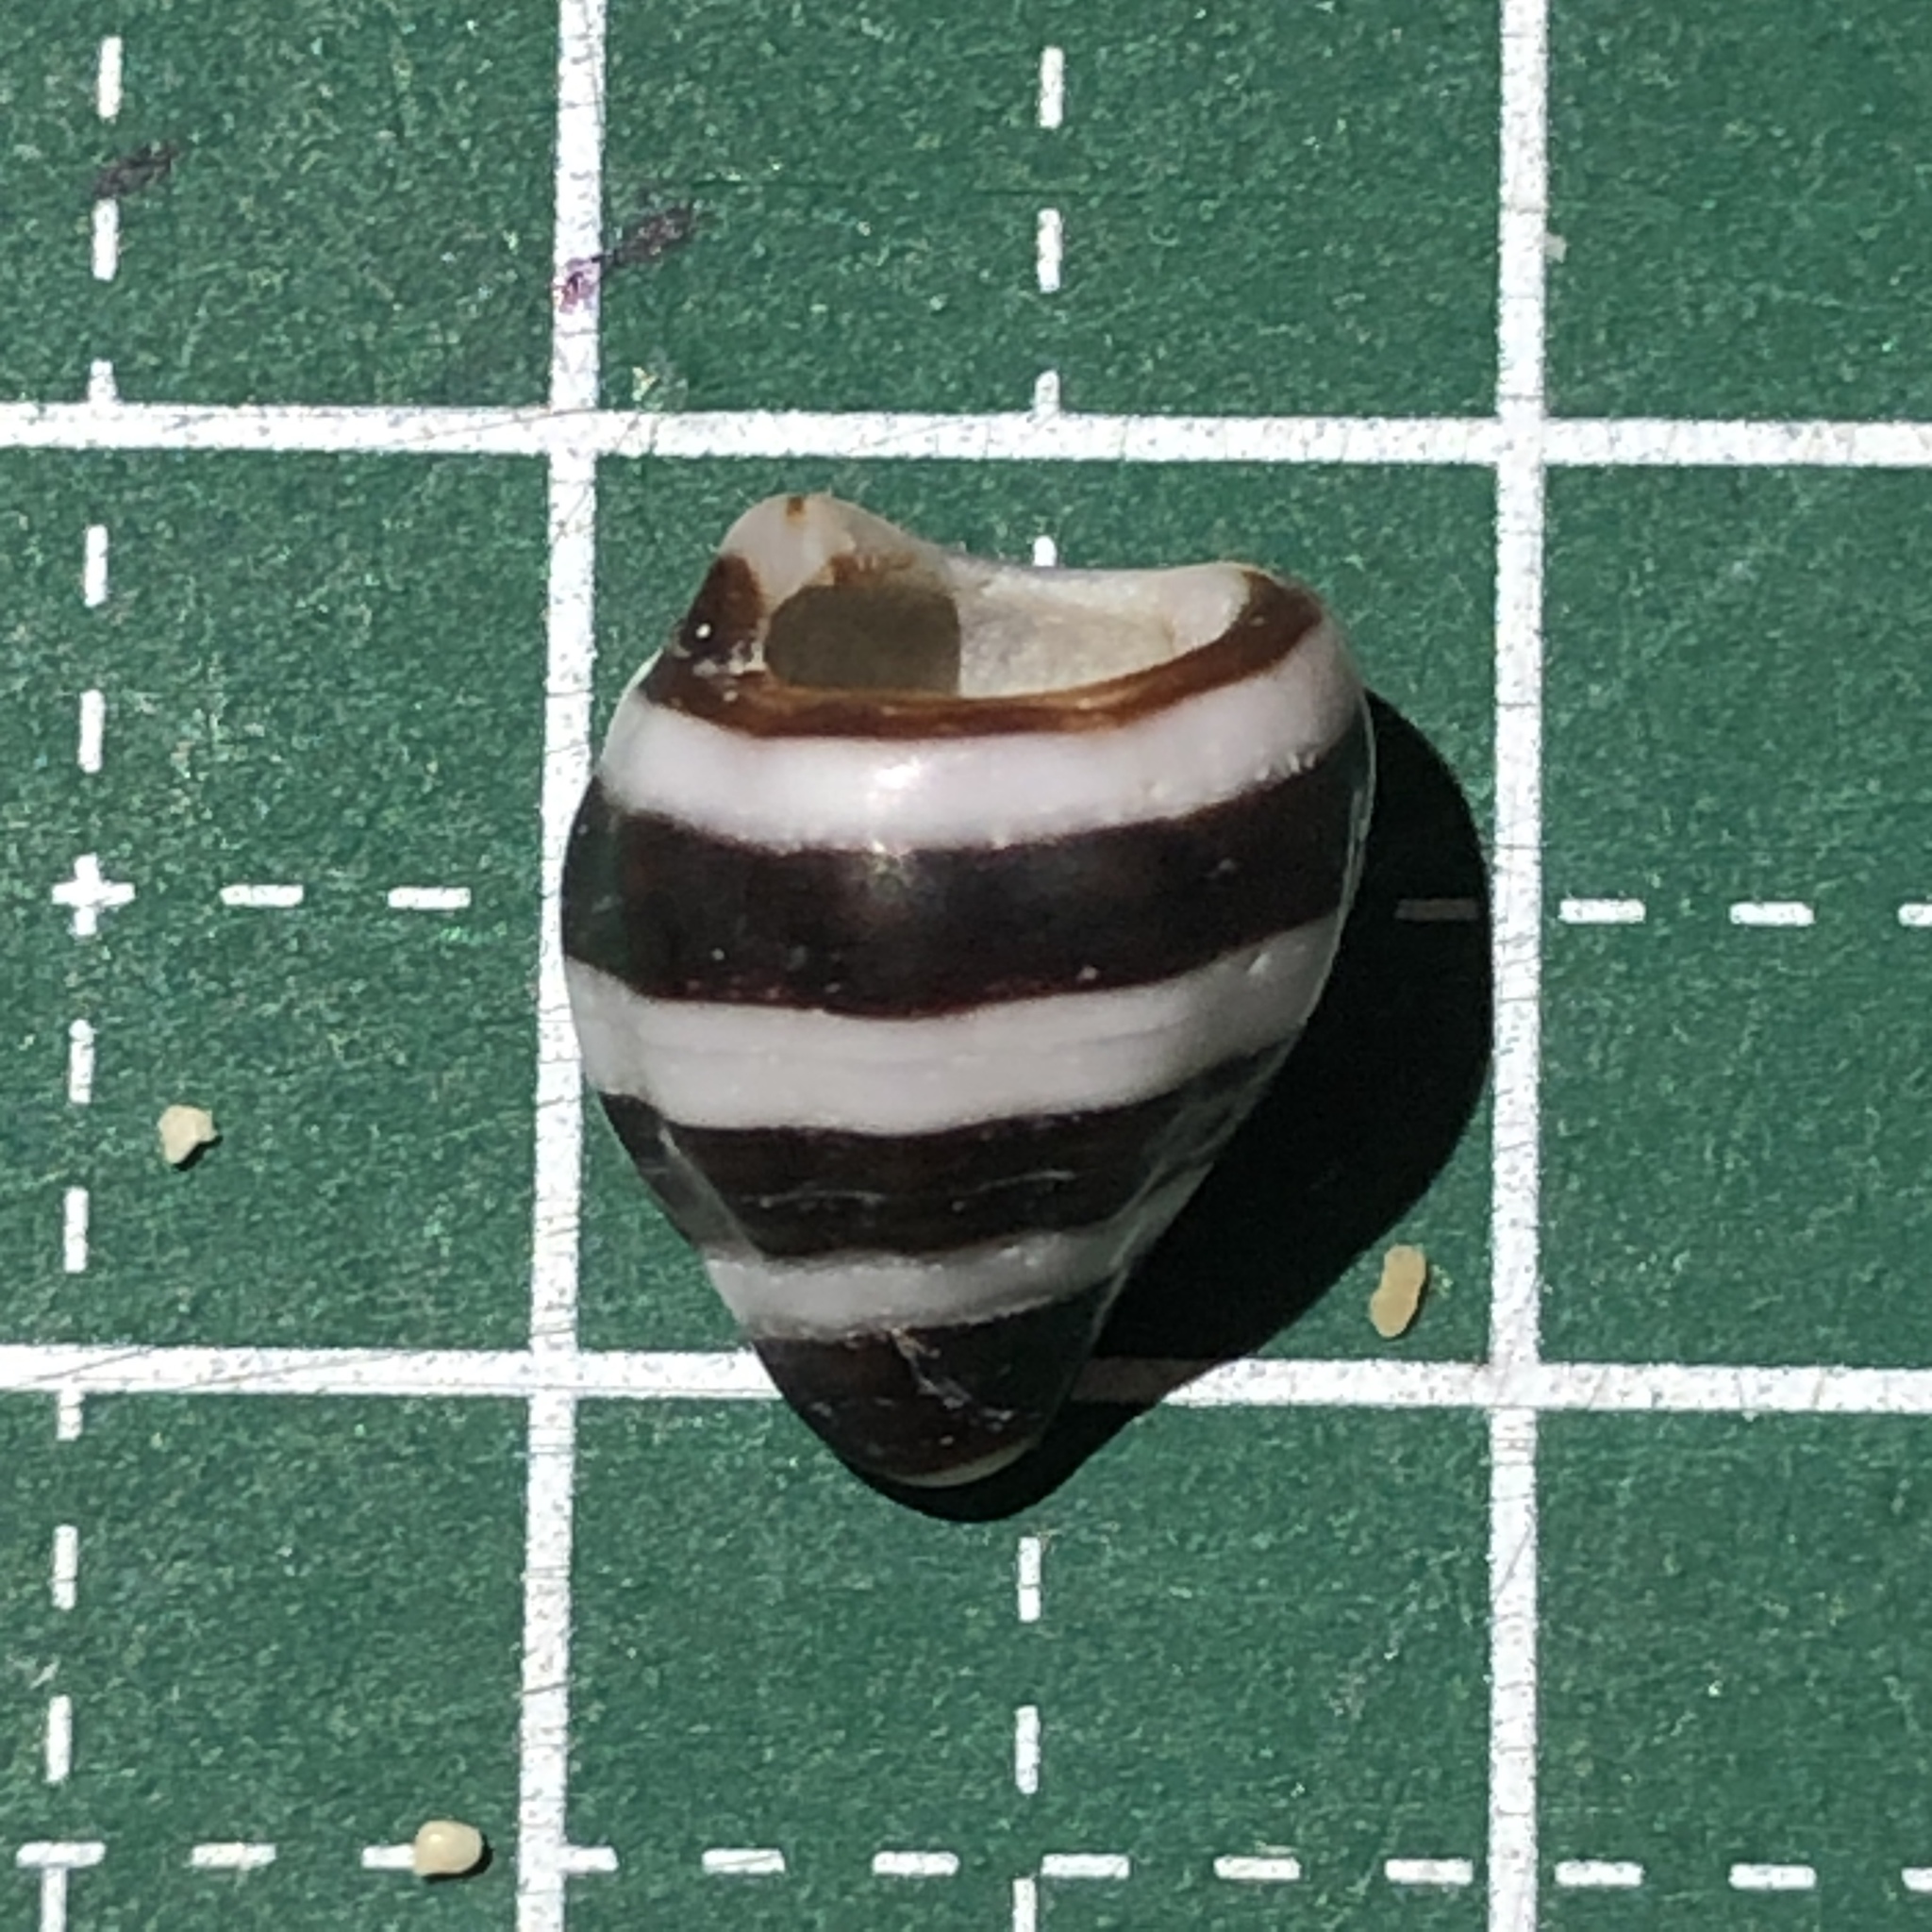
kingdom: Animalia
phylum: Mollusca
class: Gastropoda
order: Neogastropoda
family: Pisaniidae
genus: Engina
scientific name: Engina mendicaria
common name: Bumble bee snail
